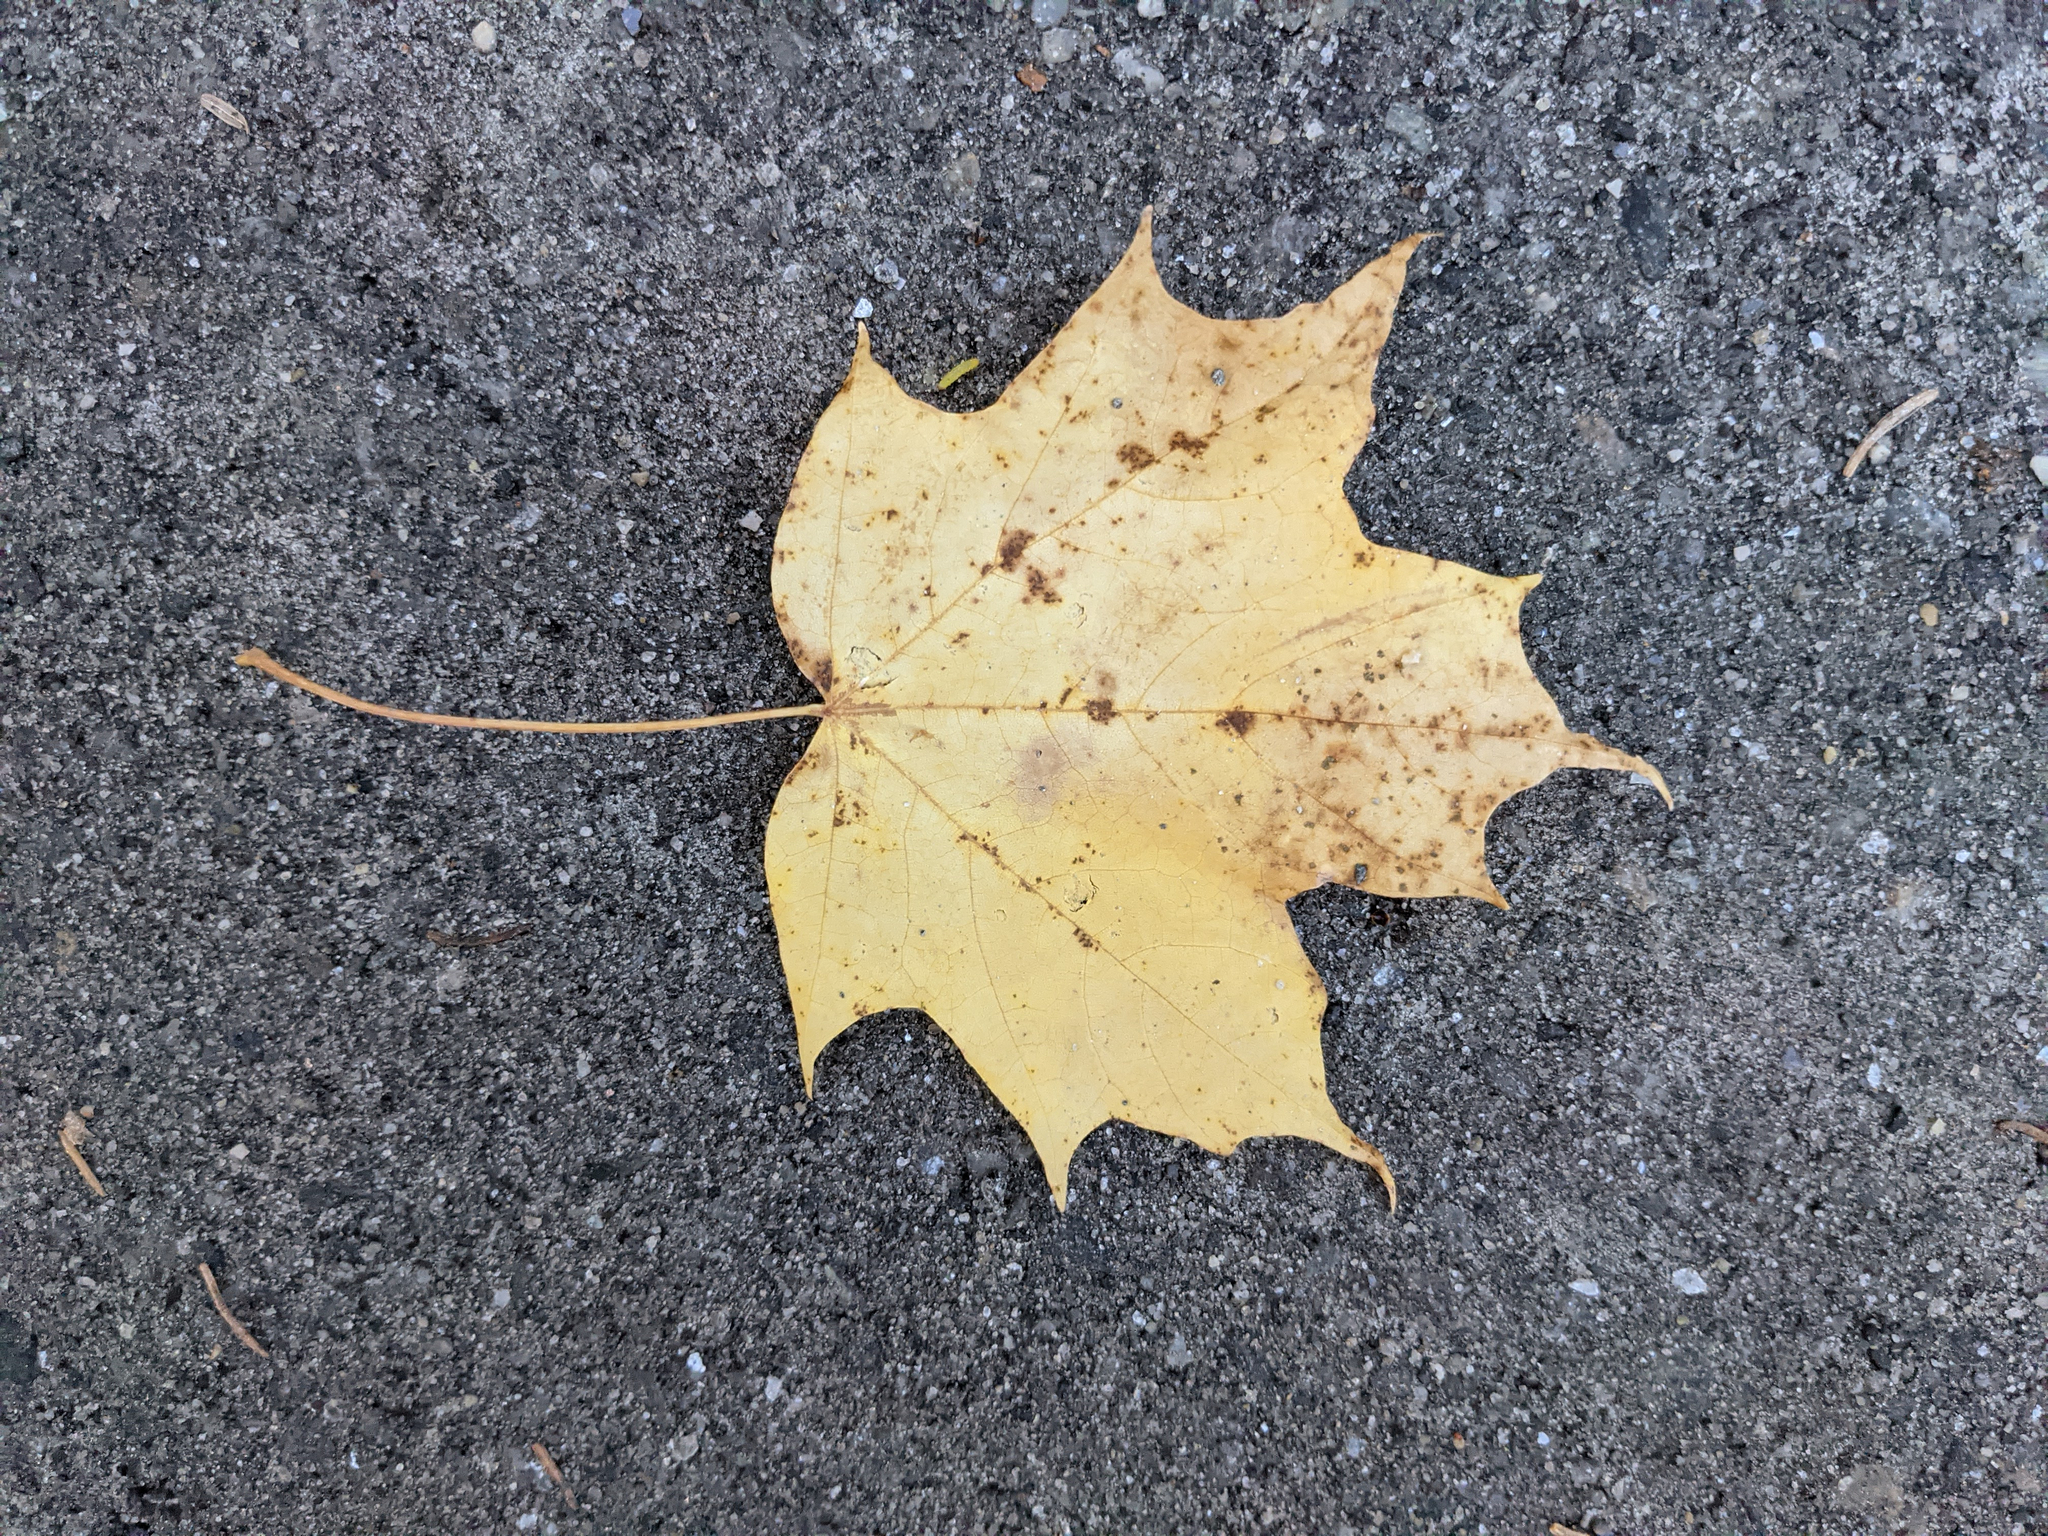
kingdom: Plantae
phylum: Tracheophyta
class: Magnoliopsida
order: Sapindales
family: Sapindaceae
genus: Acer
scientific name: Acer saccharum
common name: Sugar maple
